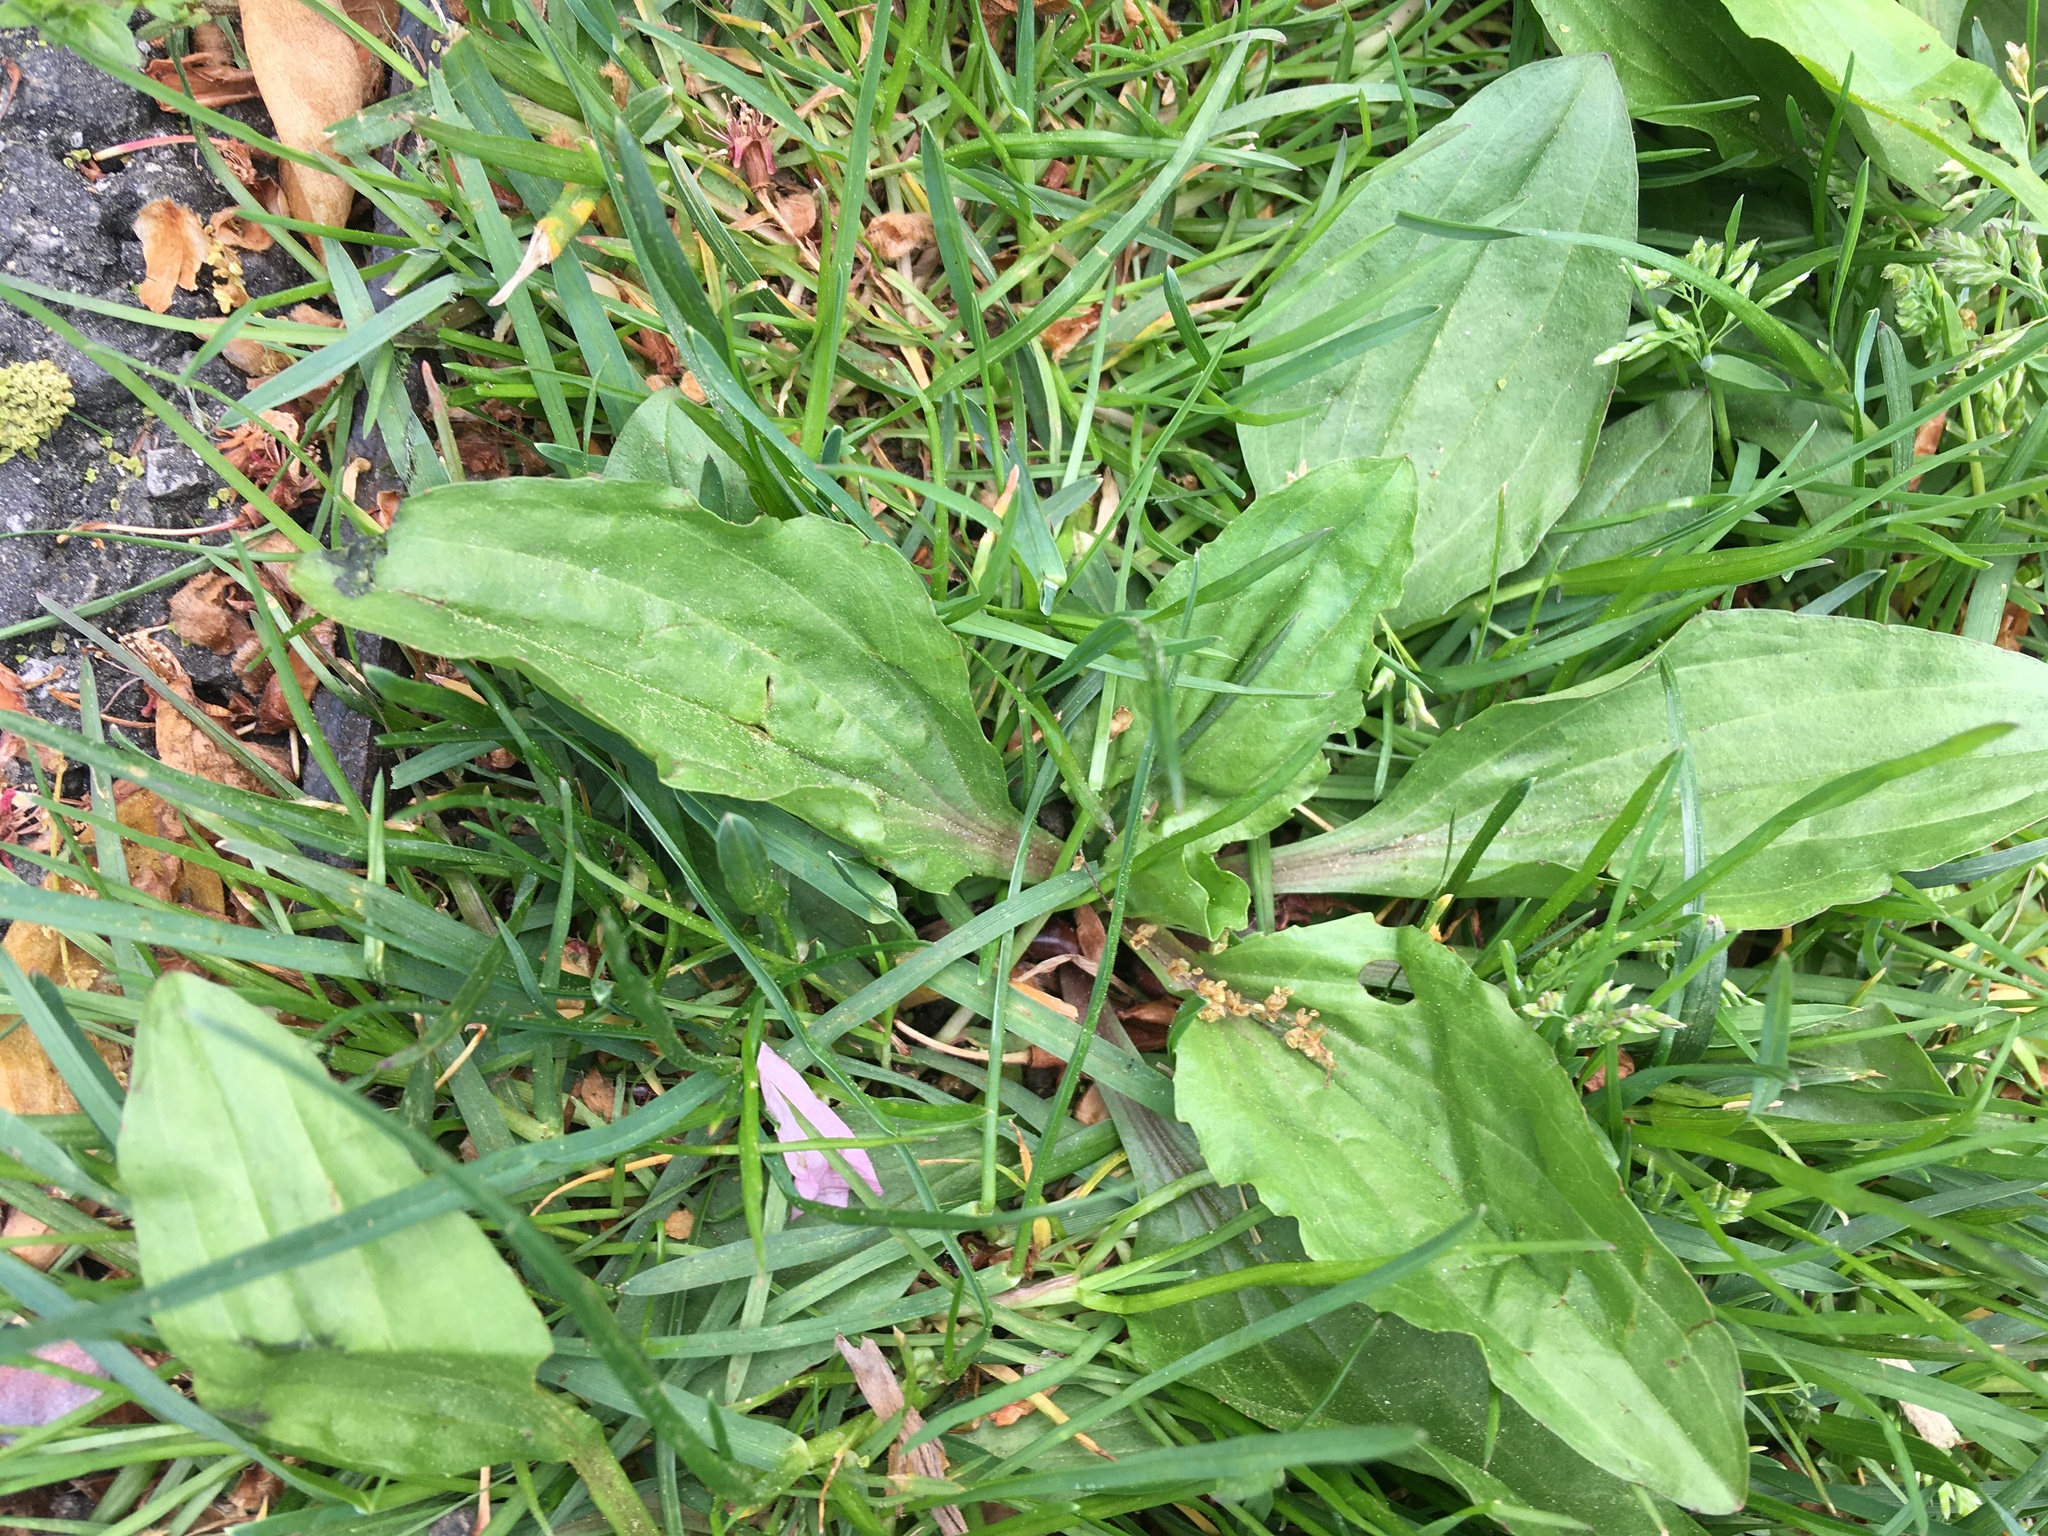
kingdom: Plantae
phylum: Tracheophyta
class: Magnoliopsida
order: Lamiales
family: Plantaginaceae
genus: Plantago
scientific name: Plantago rugelii
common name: American plantain
